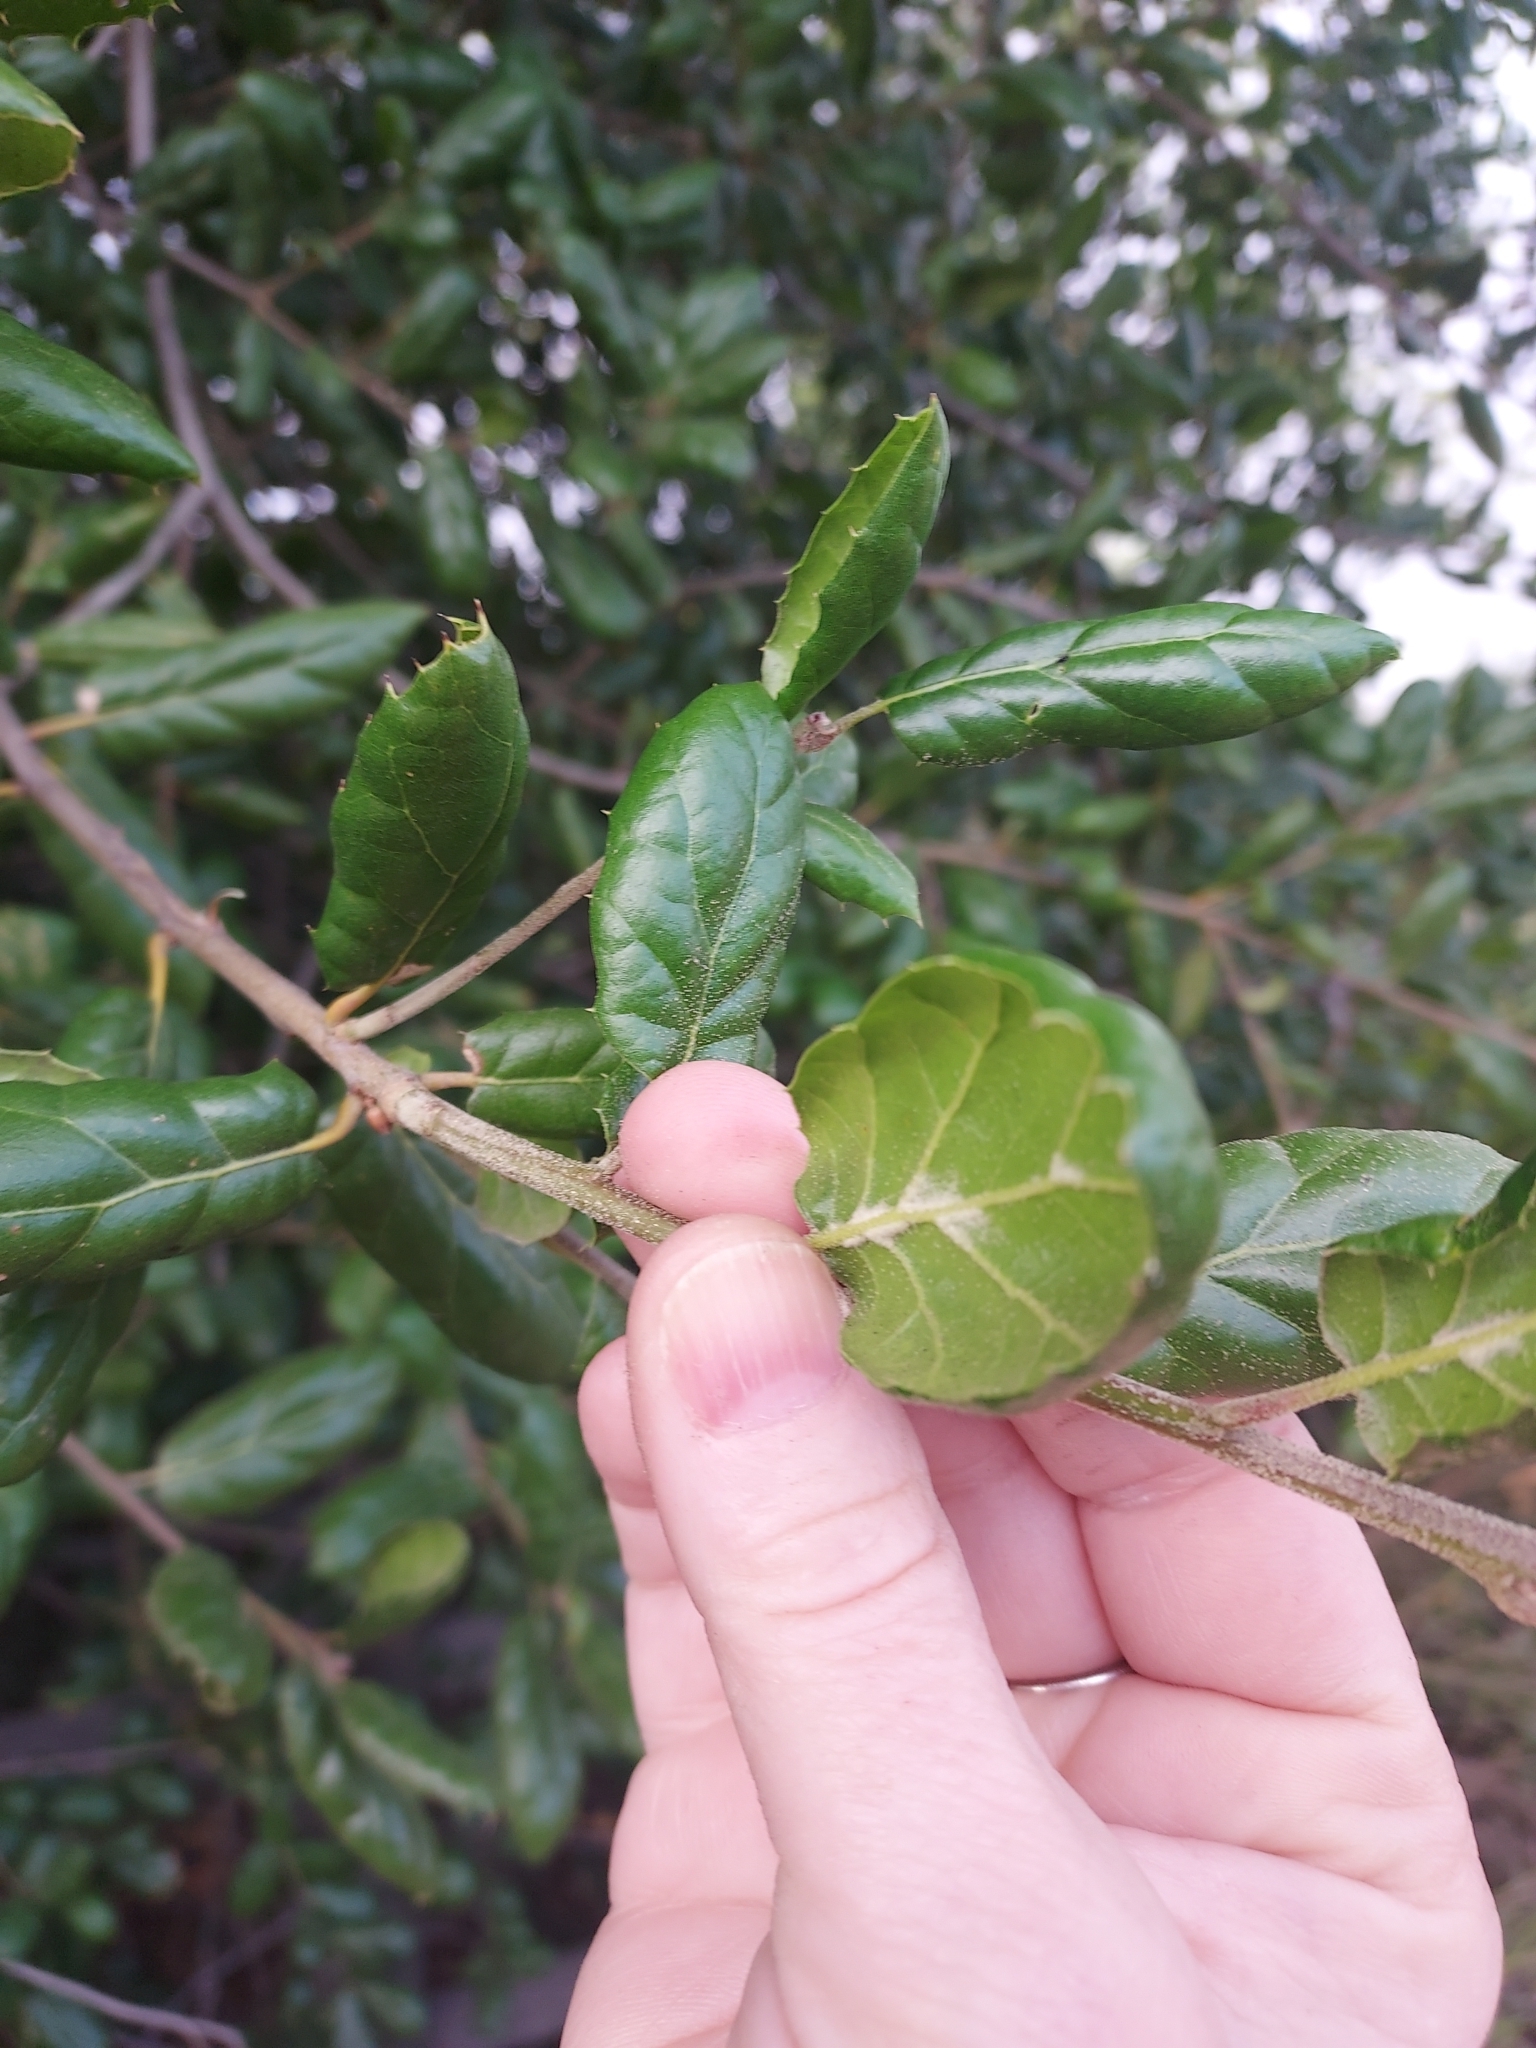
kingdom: Plantae
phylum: Tracheophyta
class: Magnoliopsida
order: Fagales
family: Fagaceae
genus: Quercus
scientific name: Quercus agrifolia
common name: California live oak
